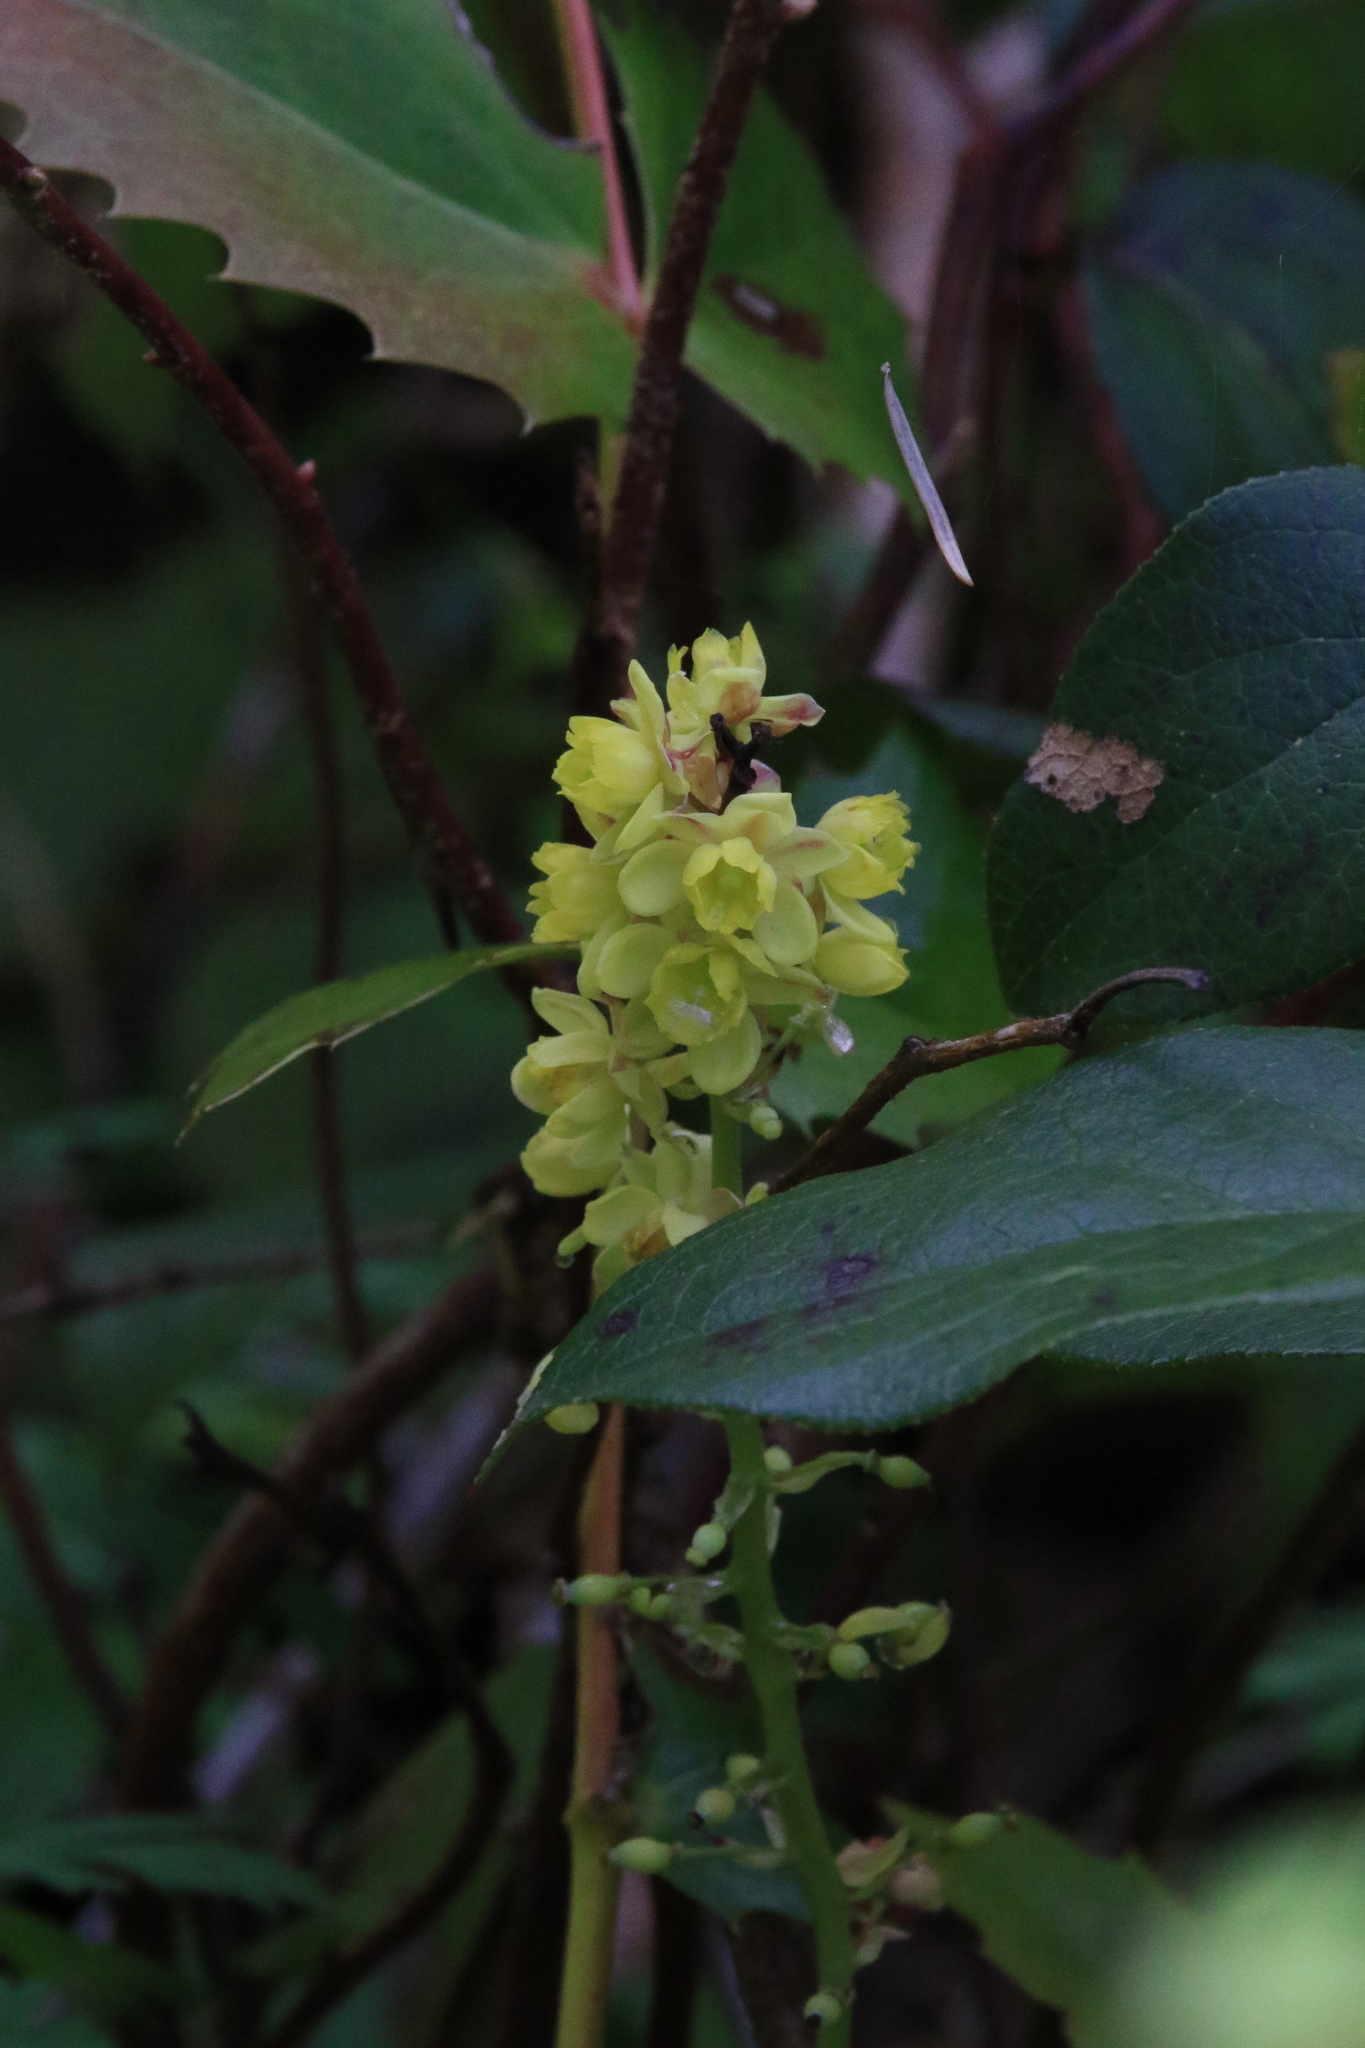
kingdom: Plantae
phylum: Tracheophyta
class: Magnoliopsida
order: Ranunculales
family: Berberidaceae
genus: Mahonia
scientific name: Mahonia nervosa
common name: Cascade oregon-grape
